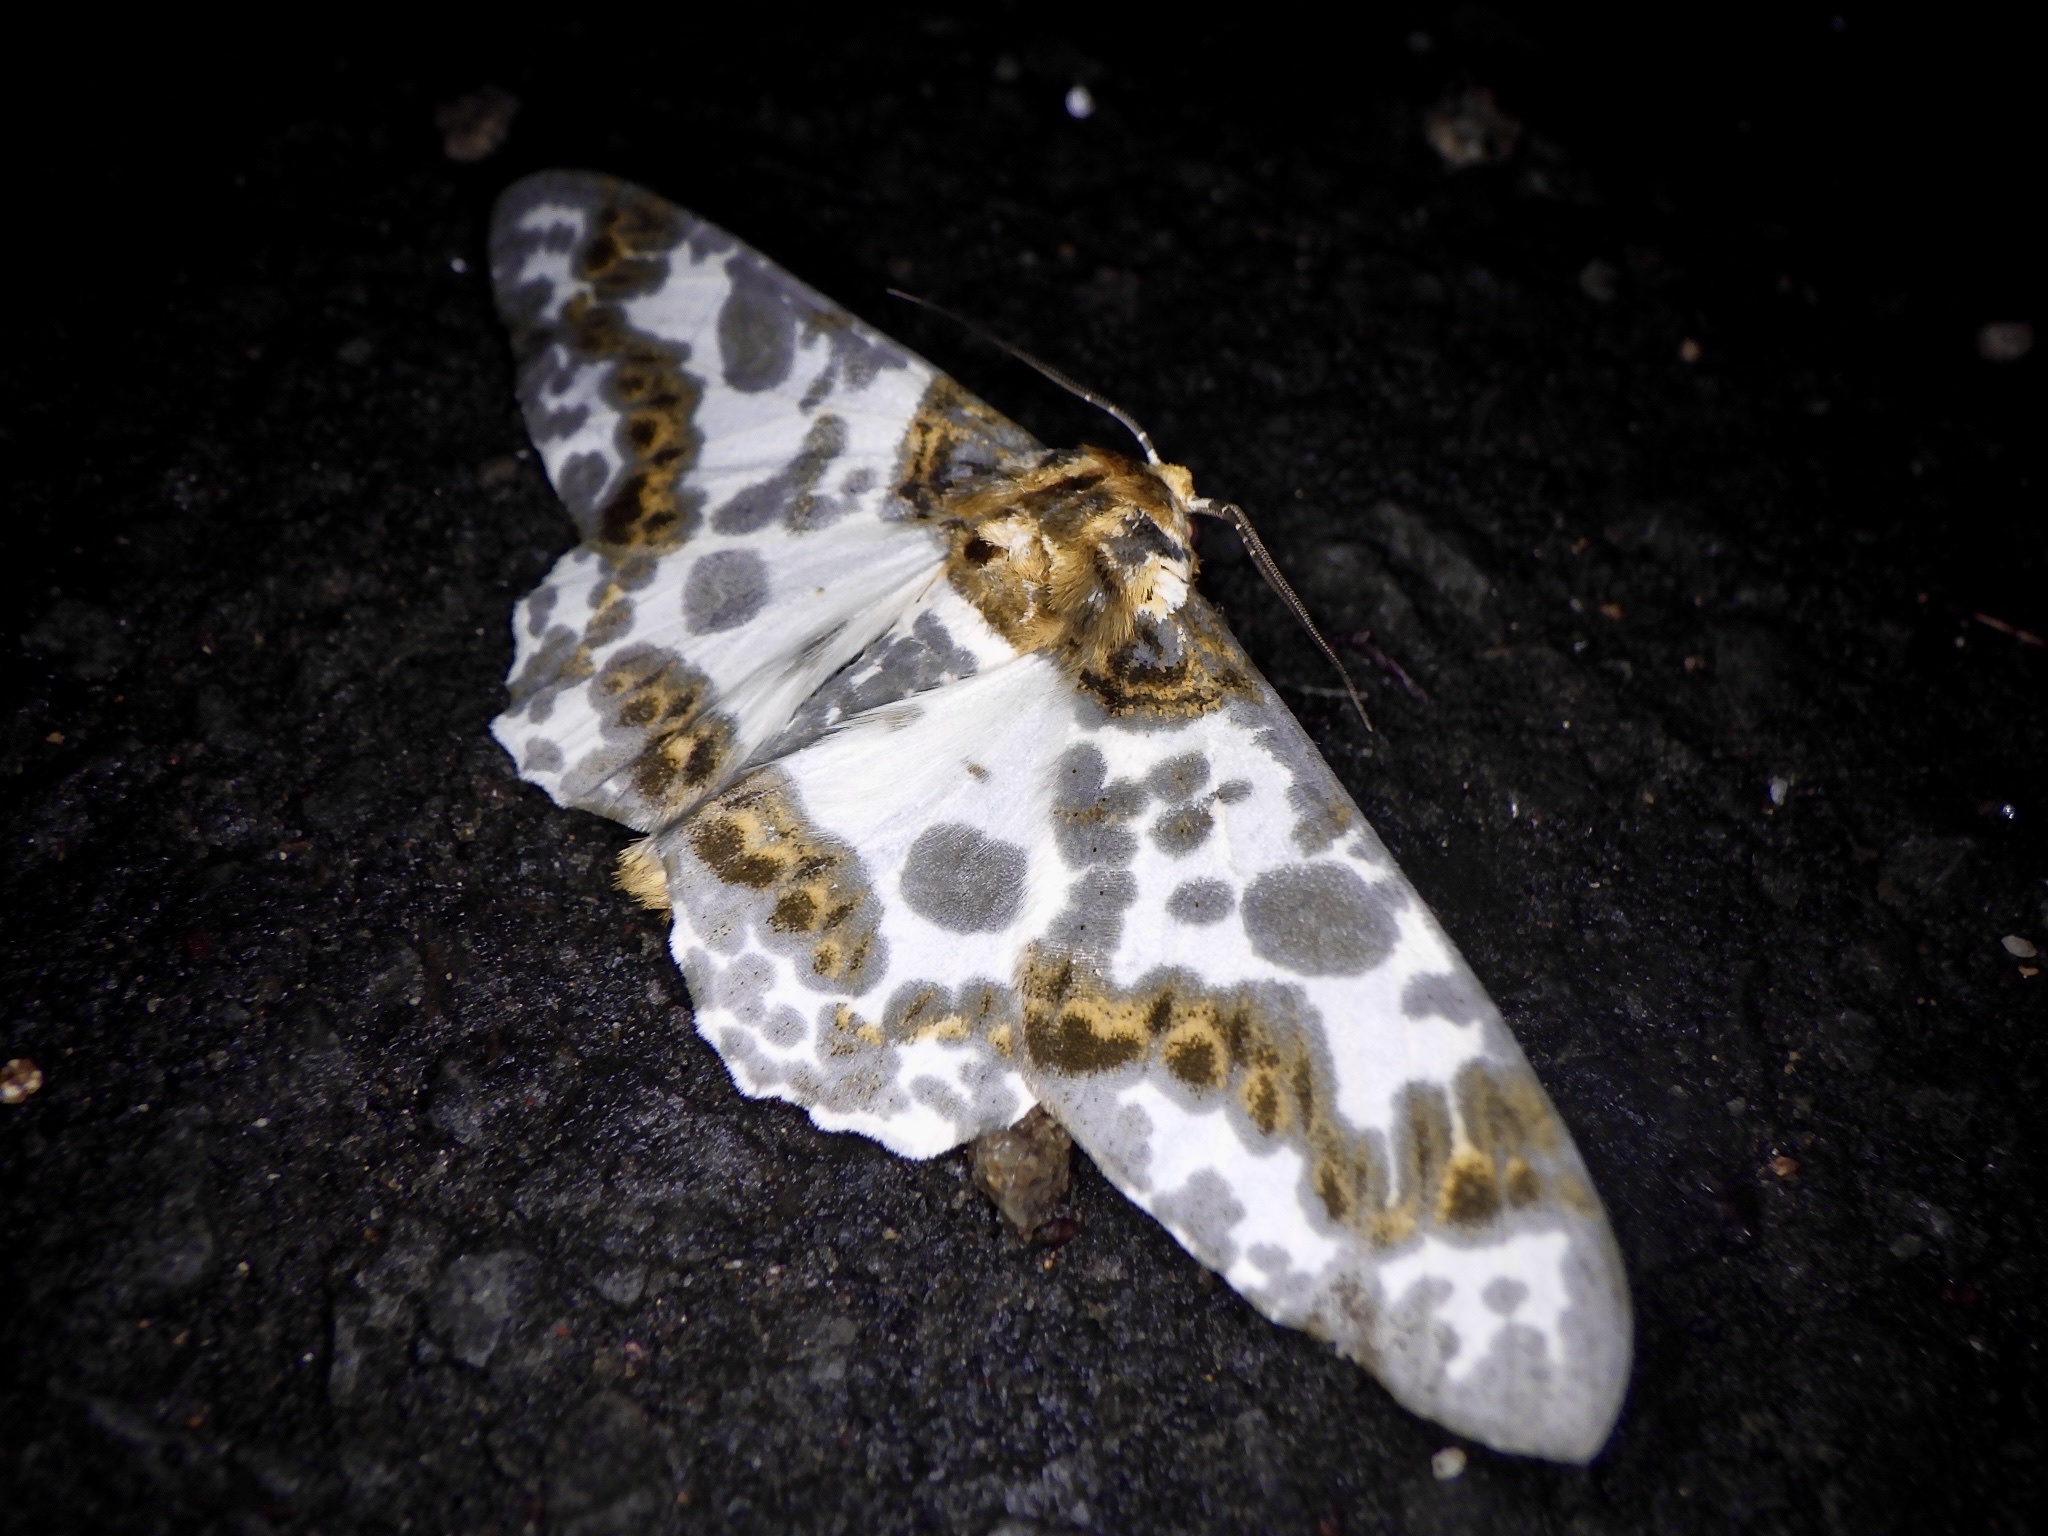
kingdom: Animalia
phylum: Arthropoda
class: Insecta
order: Lepidoptera
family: Geometridae
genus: Biston
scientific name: Biston panterinaria
